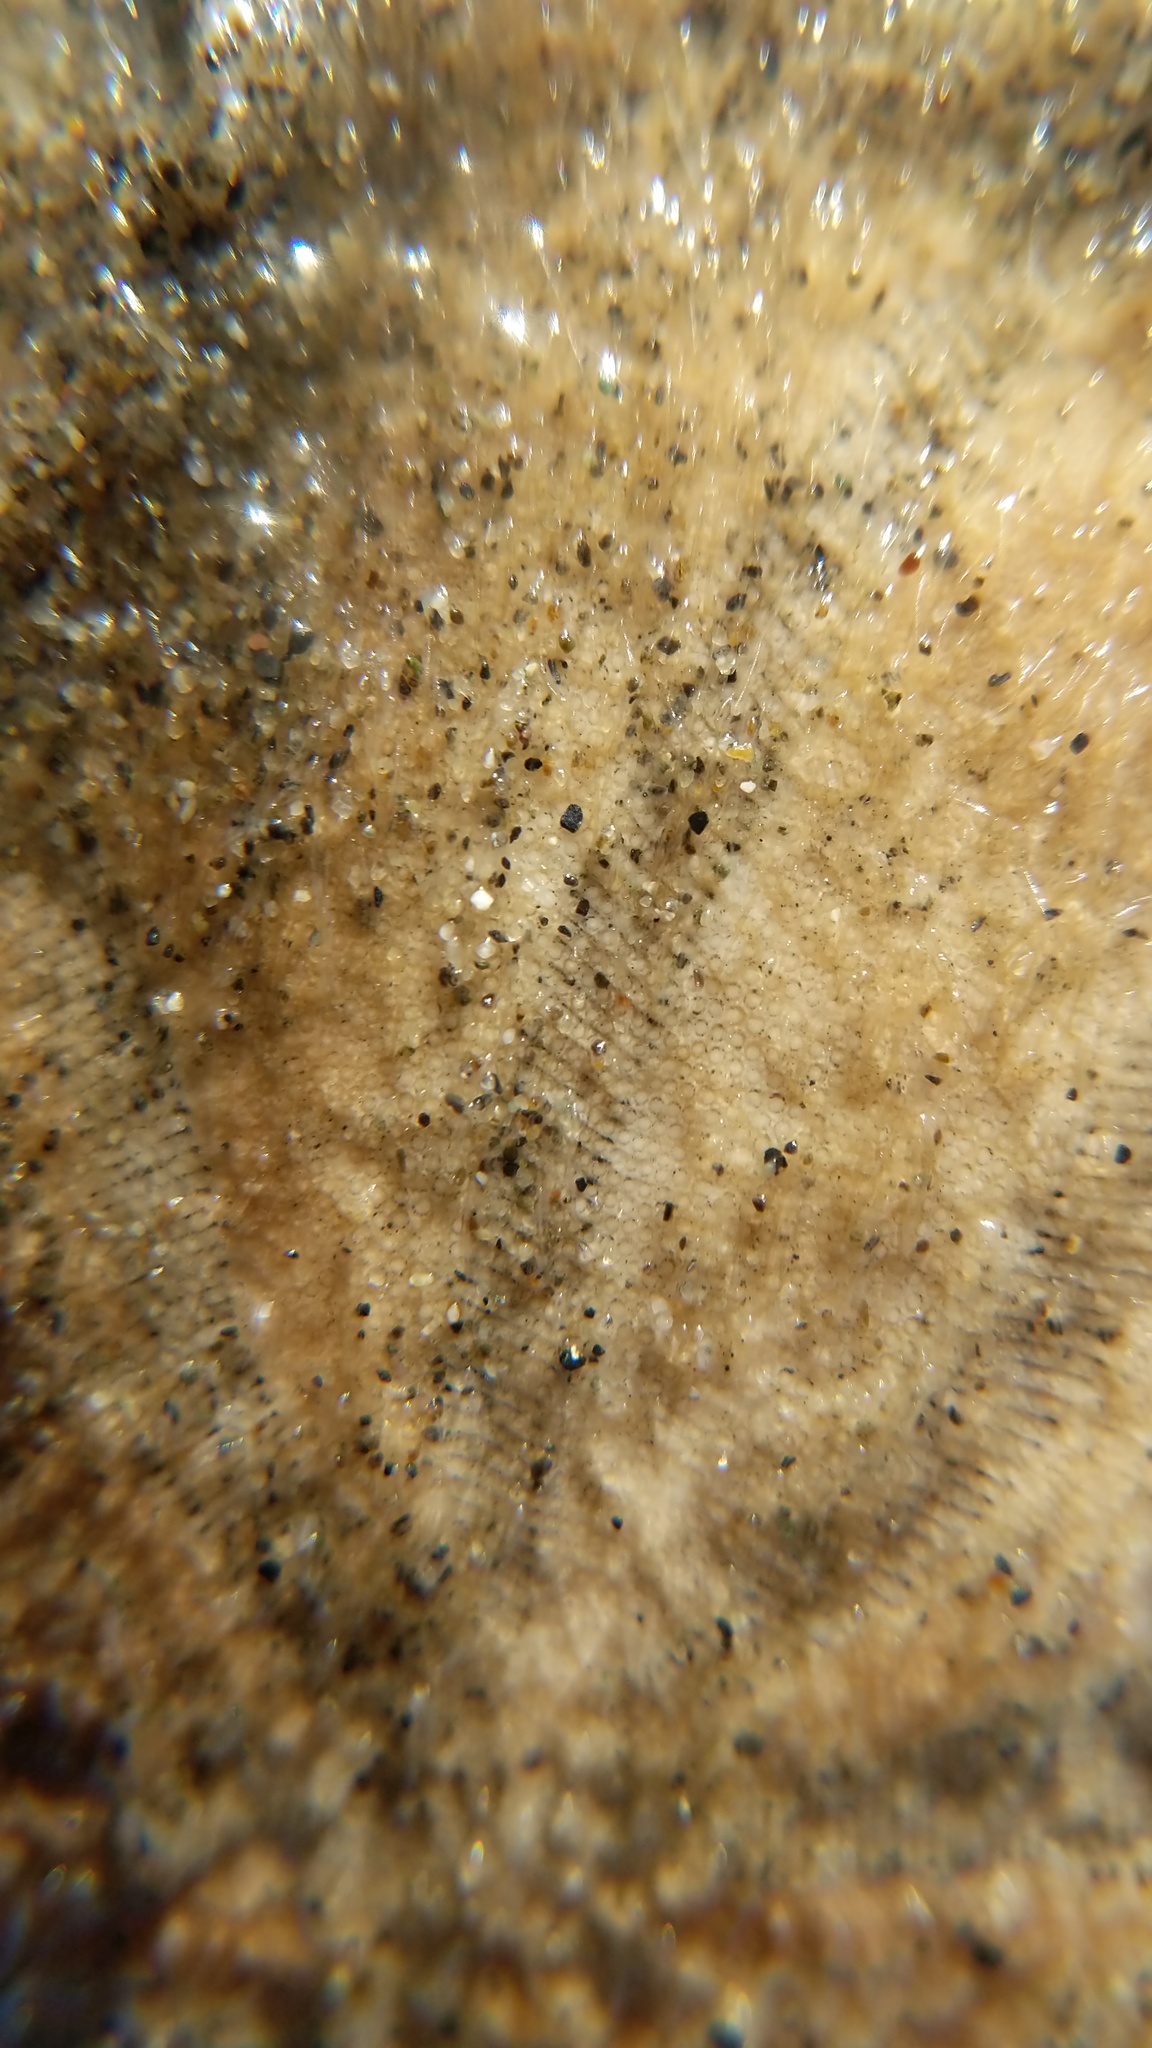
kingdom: Animalia
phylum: Echinodermata
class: Echinoidea
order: Echinolampadacea
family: Dendrasteridae
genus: Dendraster
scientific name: Dendraster excentricus
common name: Eccentric sand dollar sea urchin
